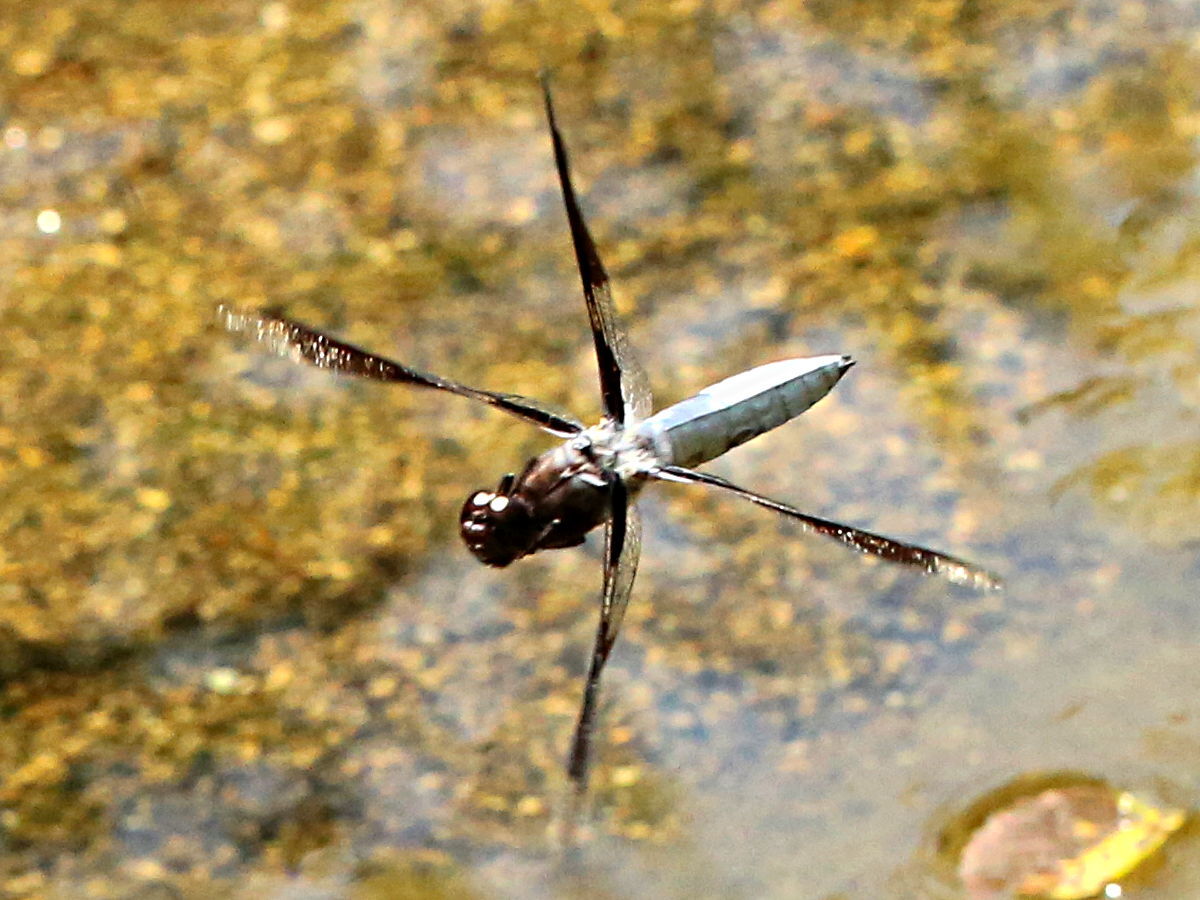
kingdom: Animalia
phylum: Arthropoda
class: Insecta
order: Odonata
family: Libellulidae
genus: Plathemis
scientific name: Plathemis lydia
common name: Common whitetail
